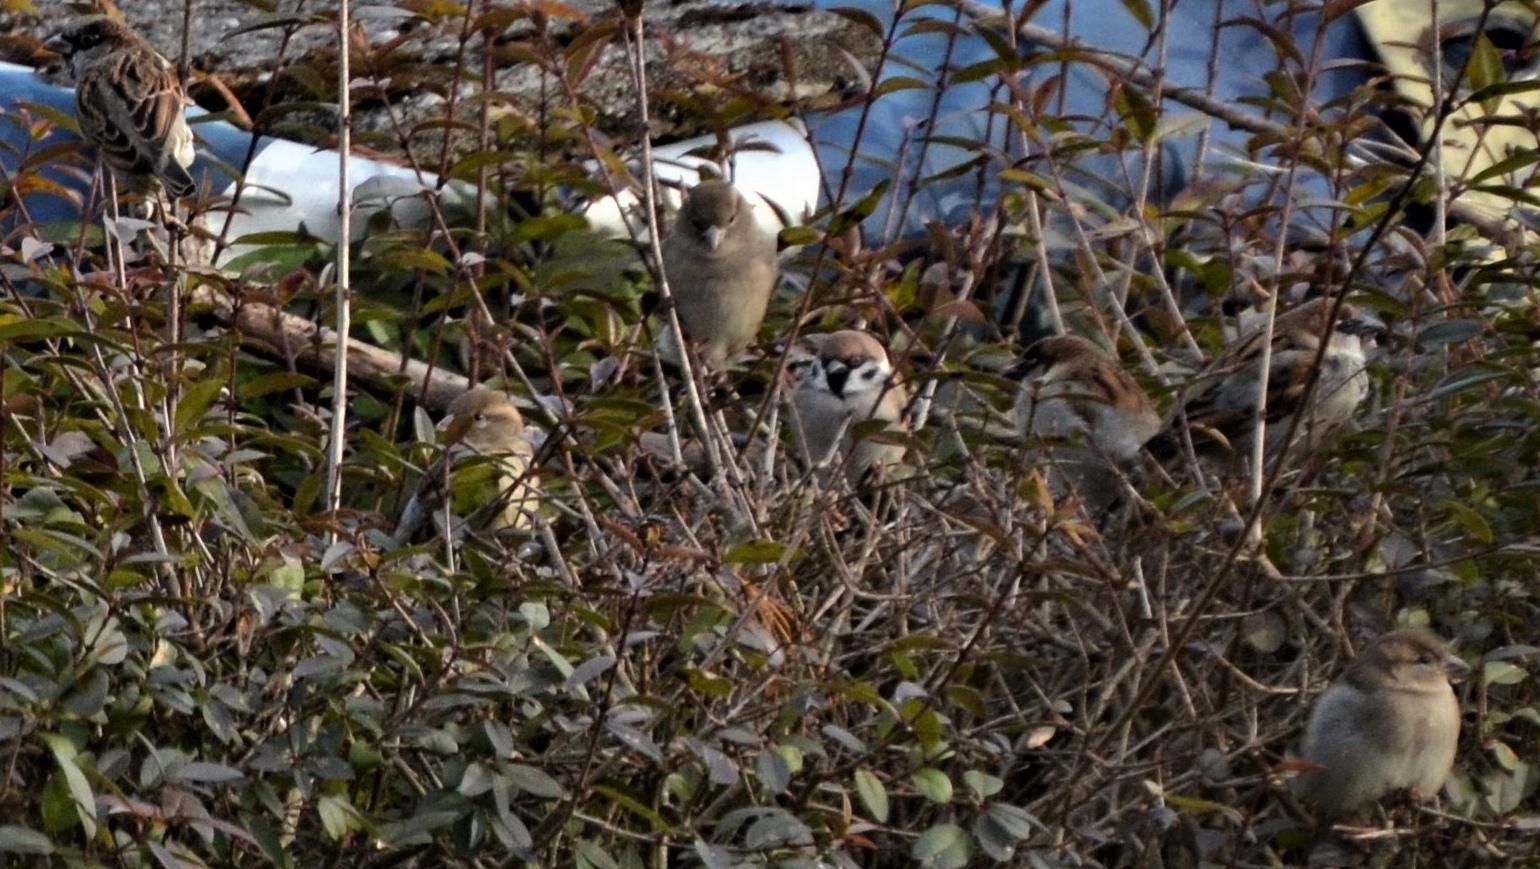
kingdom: Animalia
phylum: Chordata
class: Aves
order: Passeriformes
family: Passeridae
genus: Passer
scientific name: Passer domesticus
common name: House sparrow
